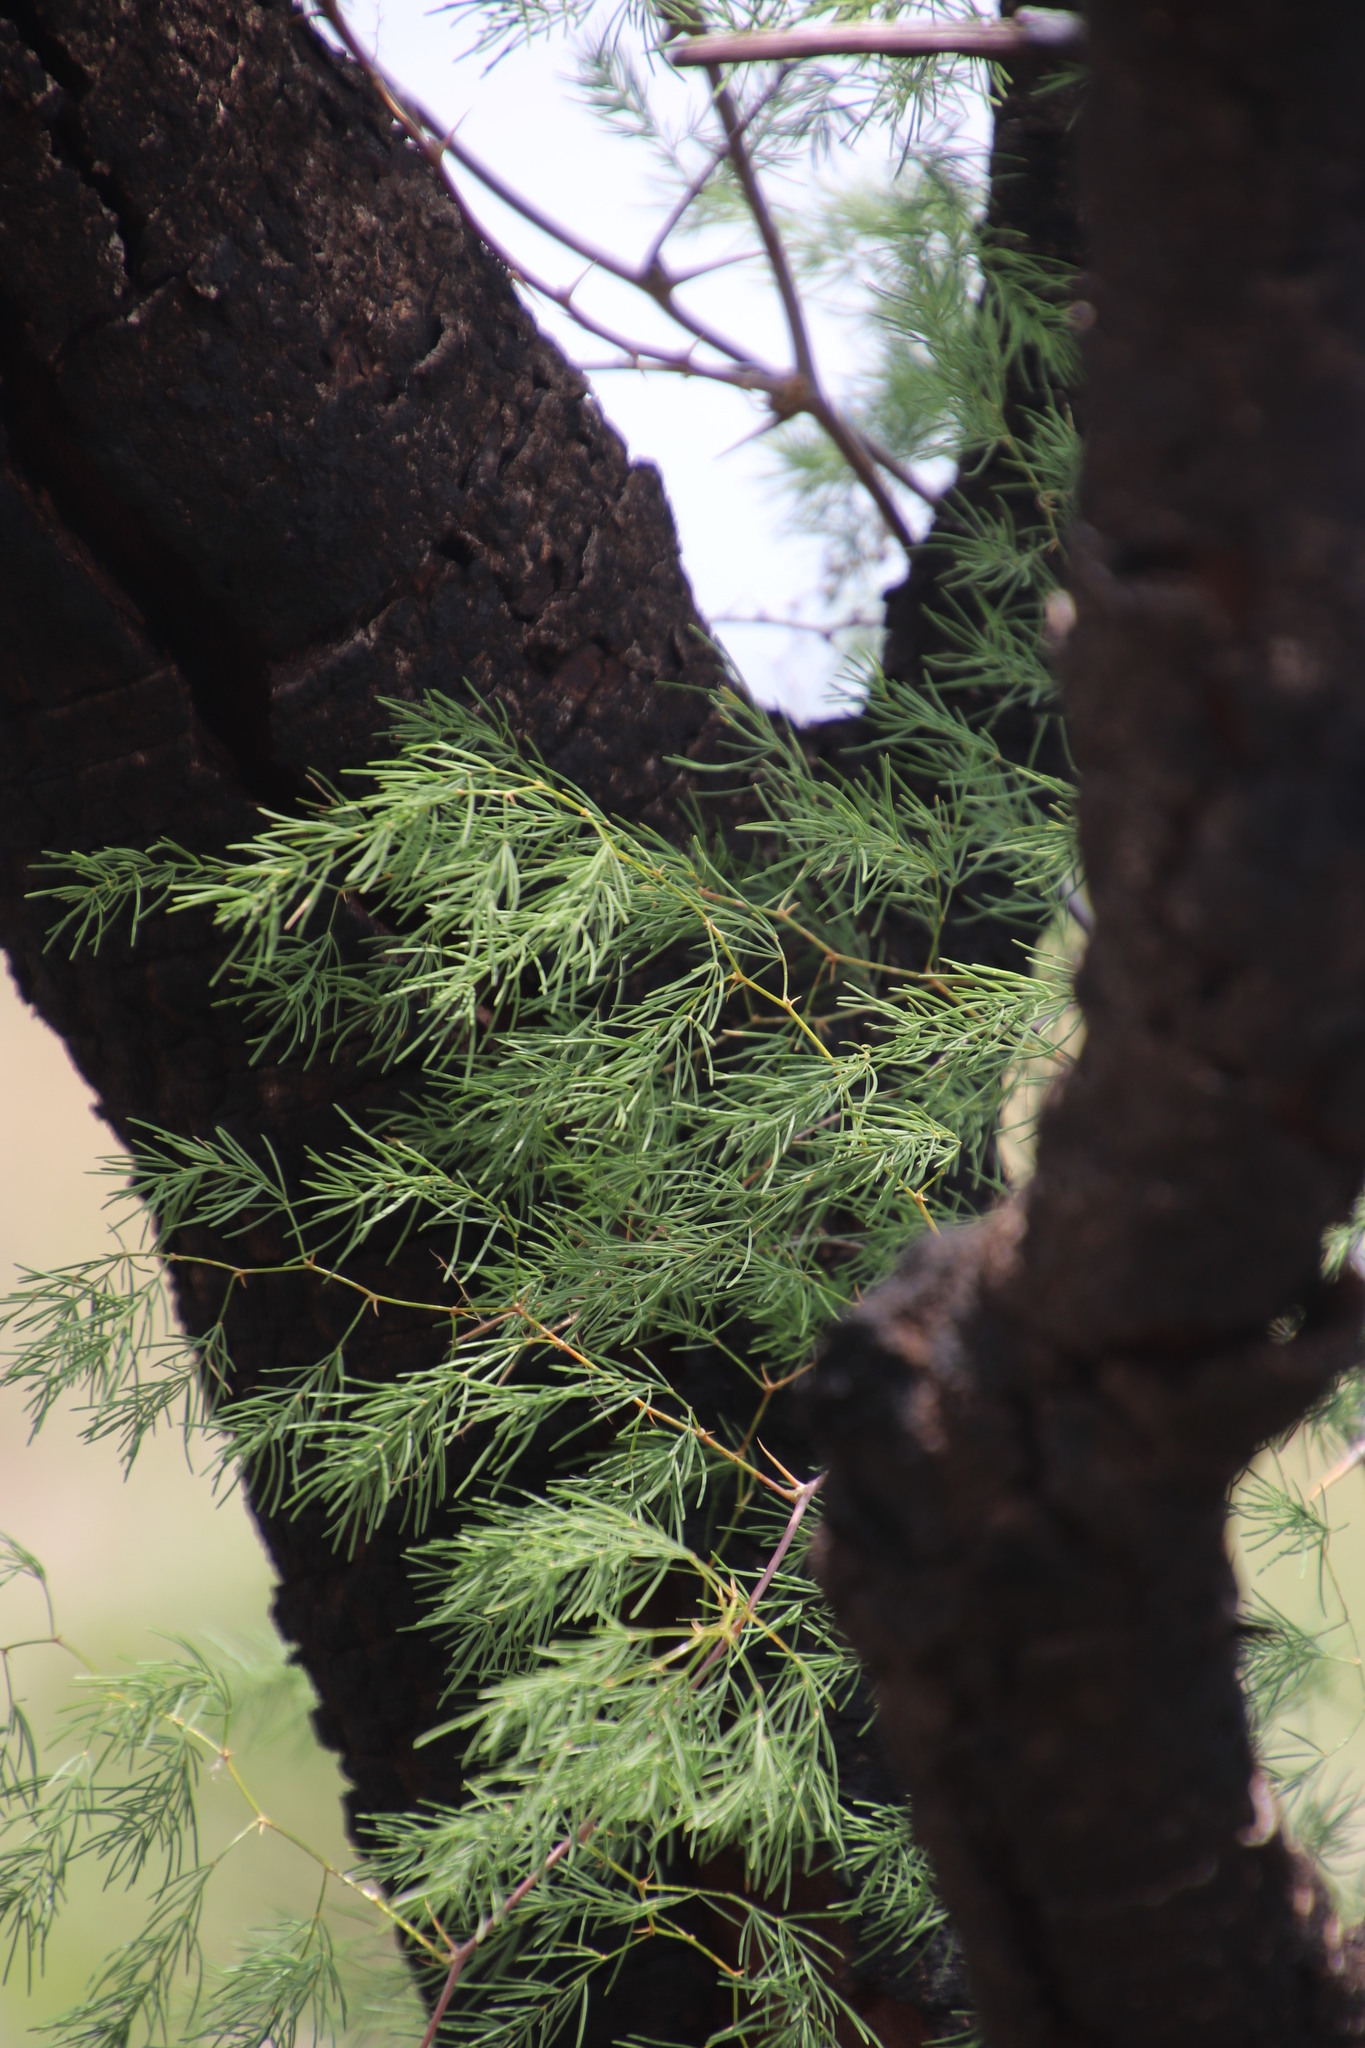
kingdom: Plantae
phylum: Tracheophyta
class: Liliopsida
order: Asparagales
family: Asparagaceae
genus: Asparagus
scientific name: Asparagus buchananii
